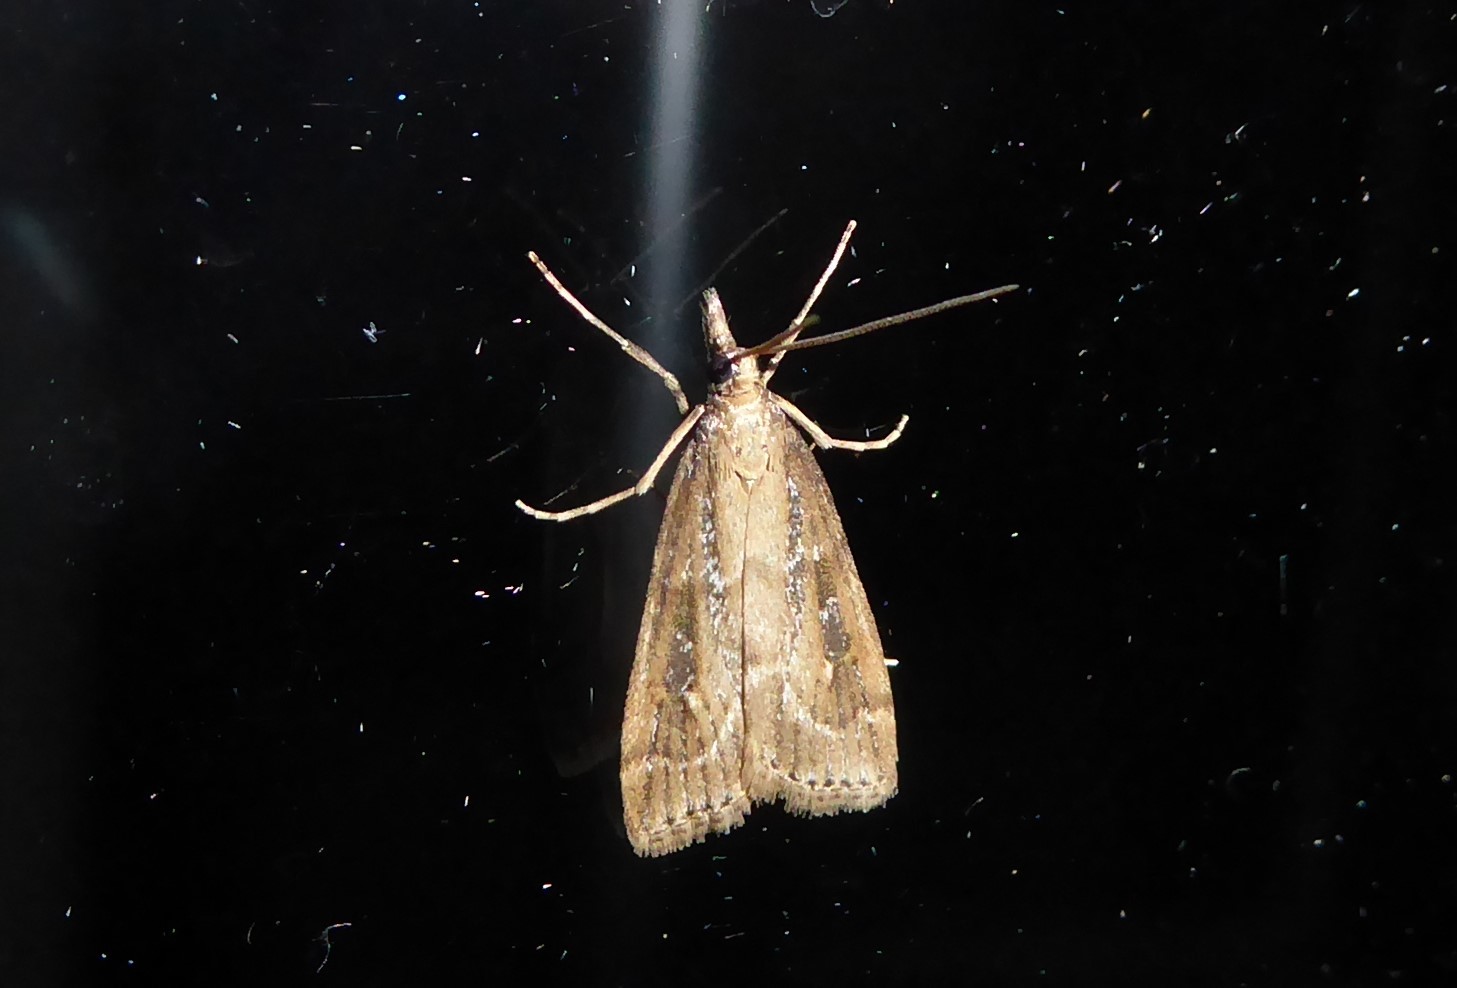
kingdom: Animalia
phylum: Arthropoda
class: Insecta
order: Lepidoptera
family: Crambidae
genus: Eudonia
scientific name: Eudonia octophora
